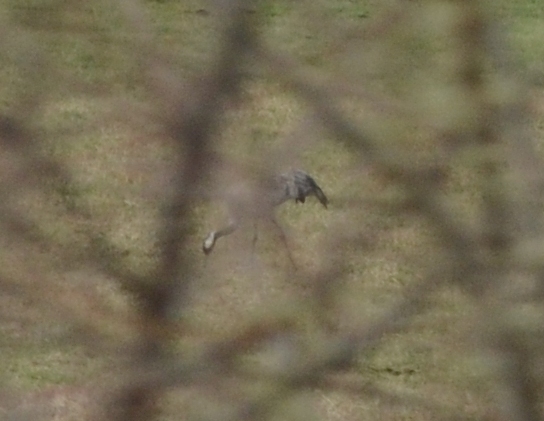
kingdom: Animalia
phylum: Chordata
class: Aves
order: Gruiformes
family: Gruidae
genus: Grus
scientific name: Grus grus
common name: Common crane
